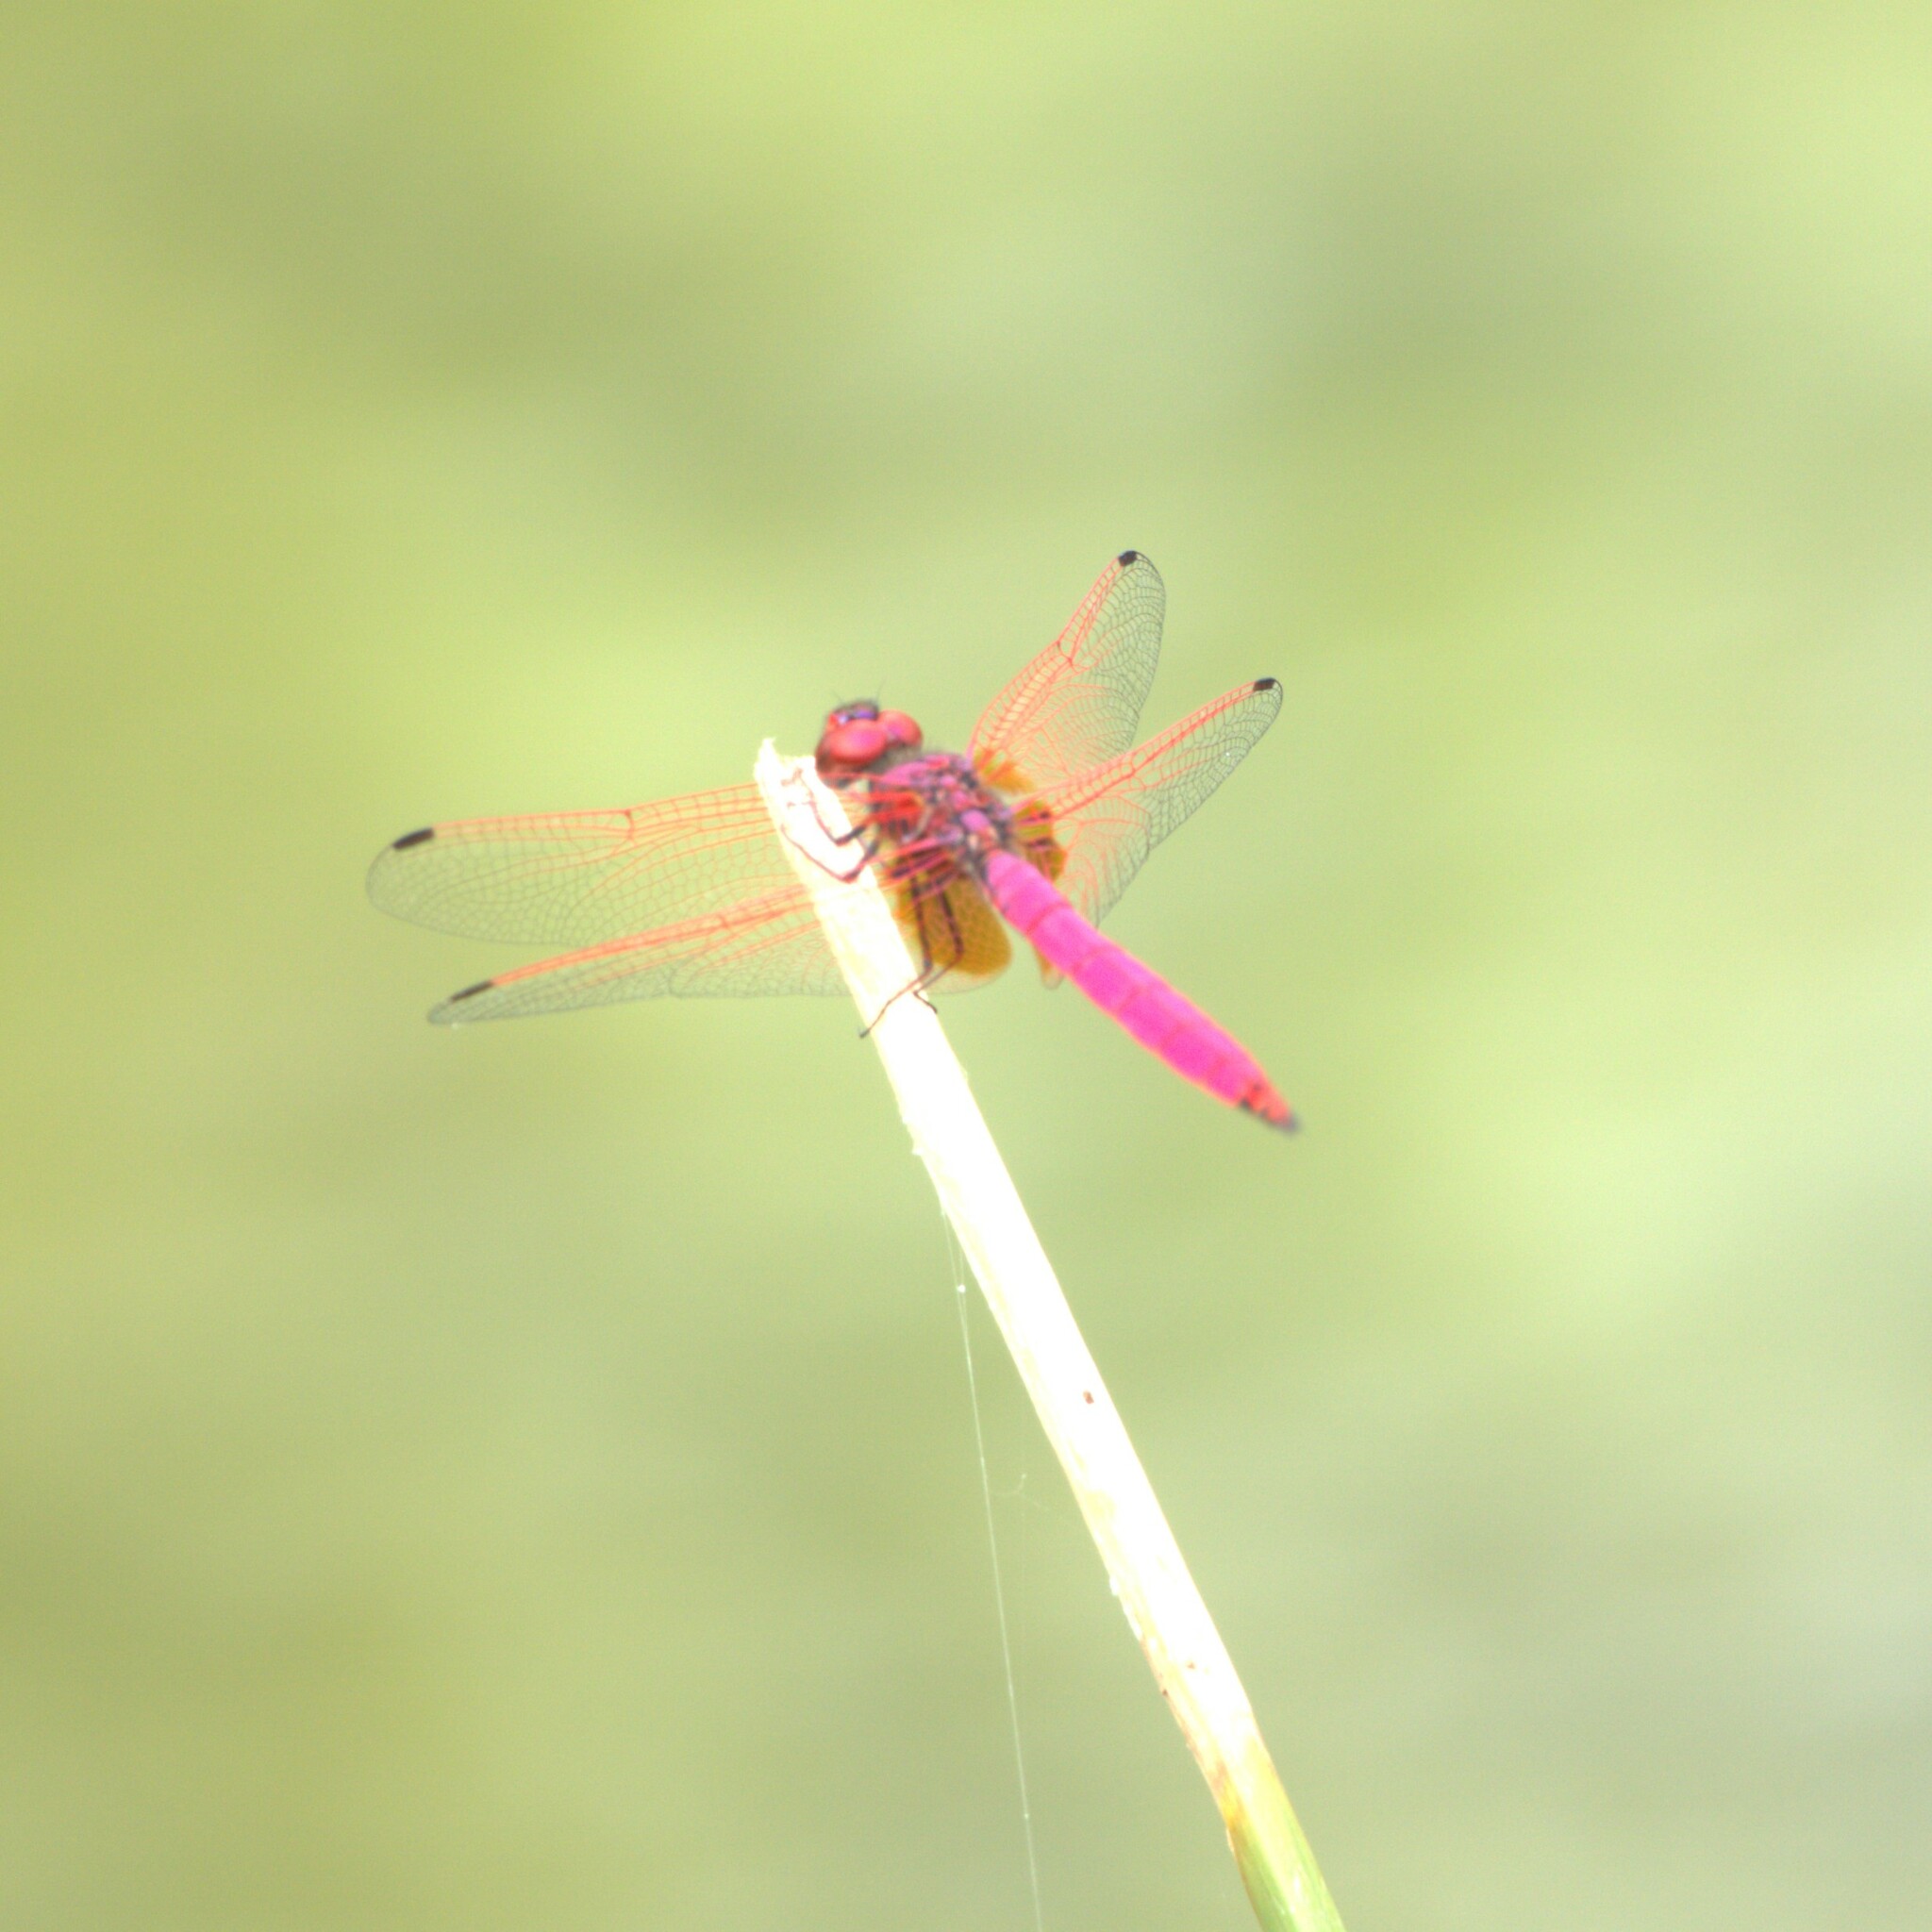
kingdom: Animalia
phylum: Arthropoda
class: Insecta
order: Odonata
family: Libellulidae
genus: Trithemis
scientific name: Trithemis aurora
